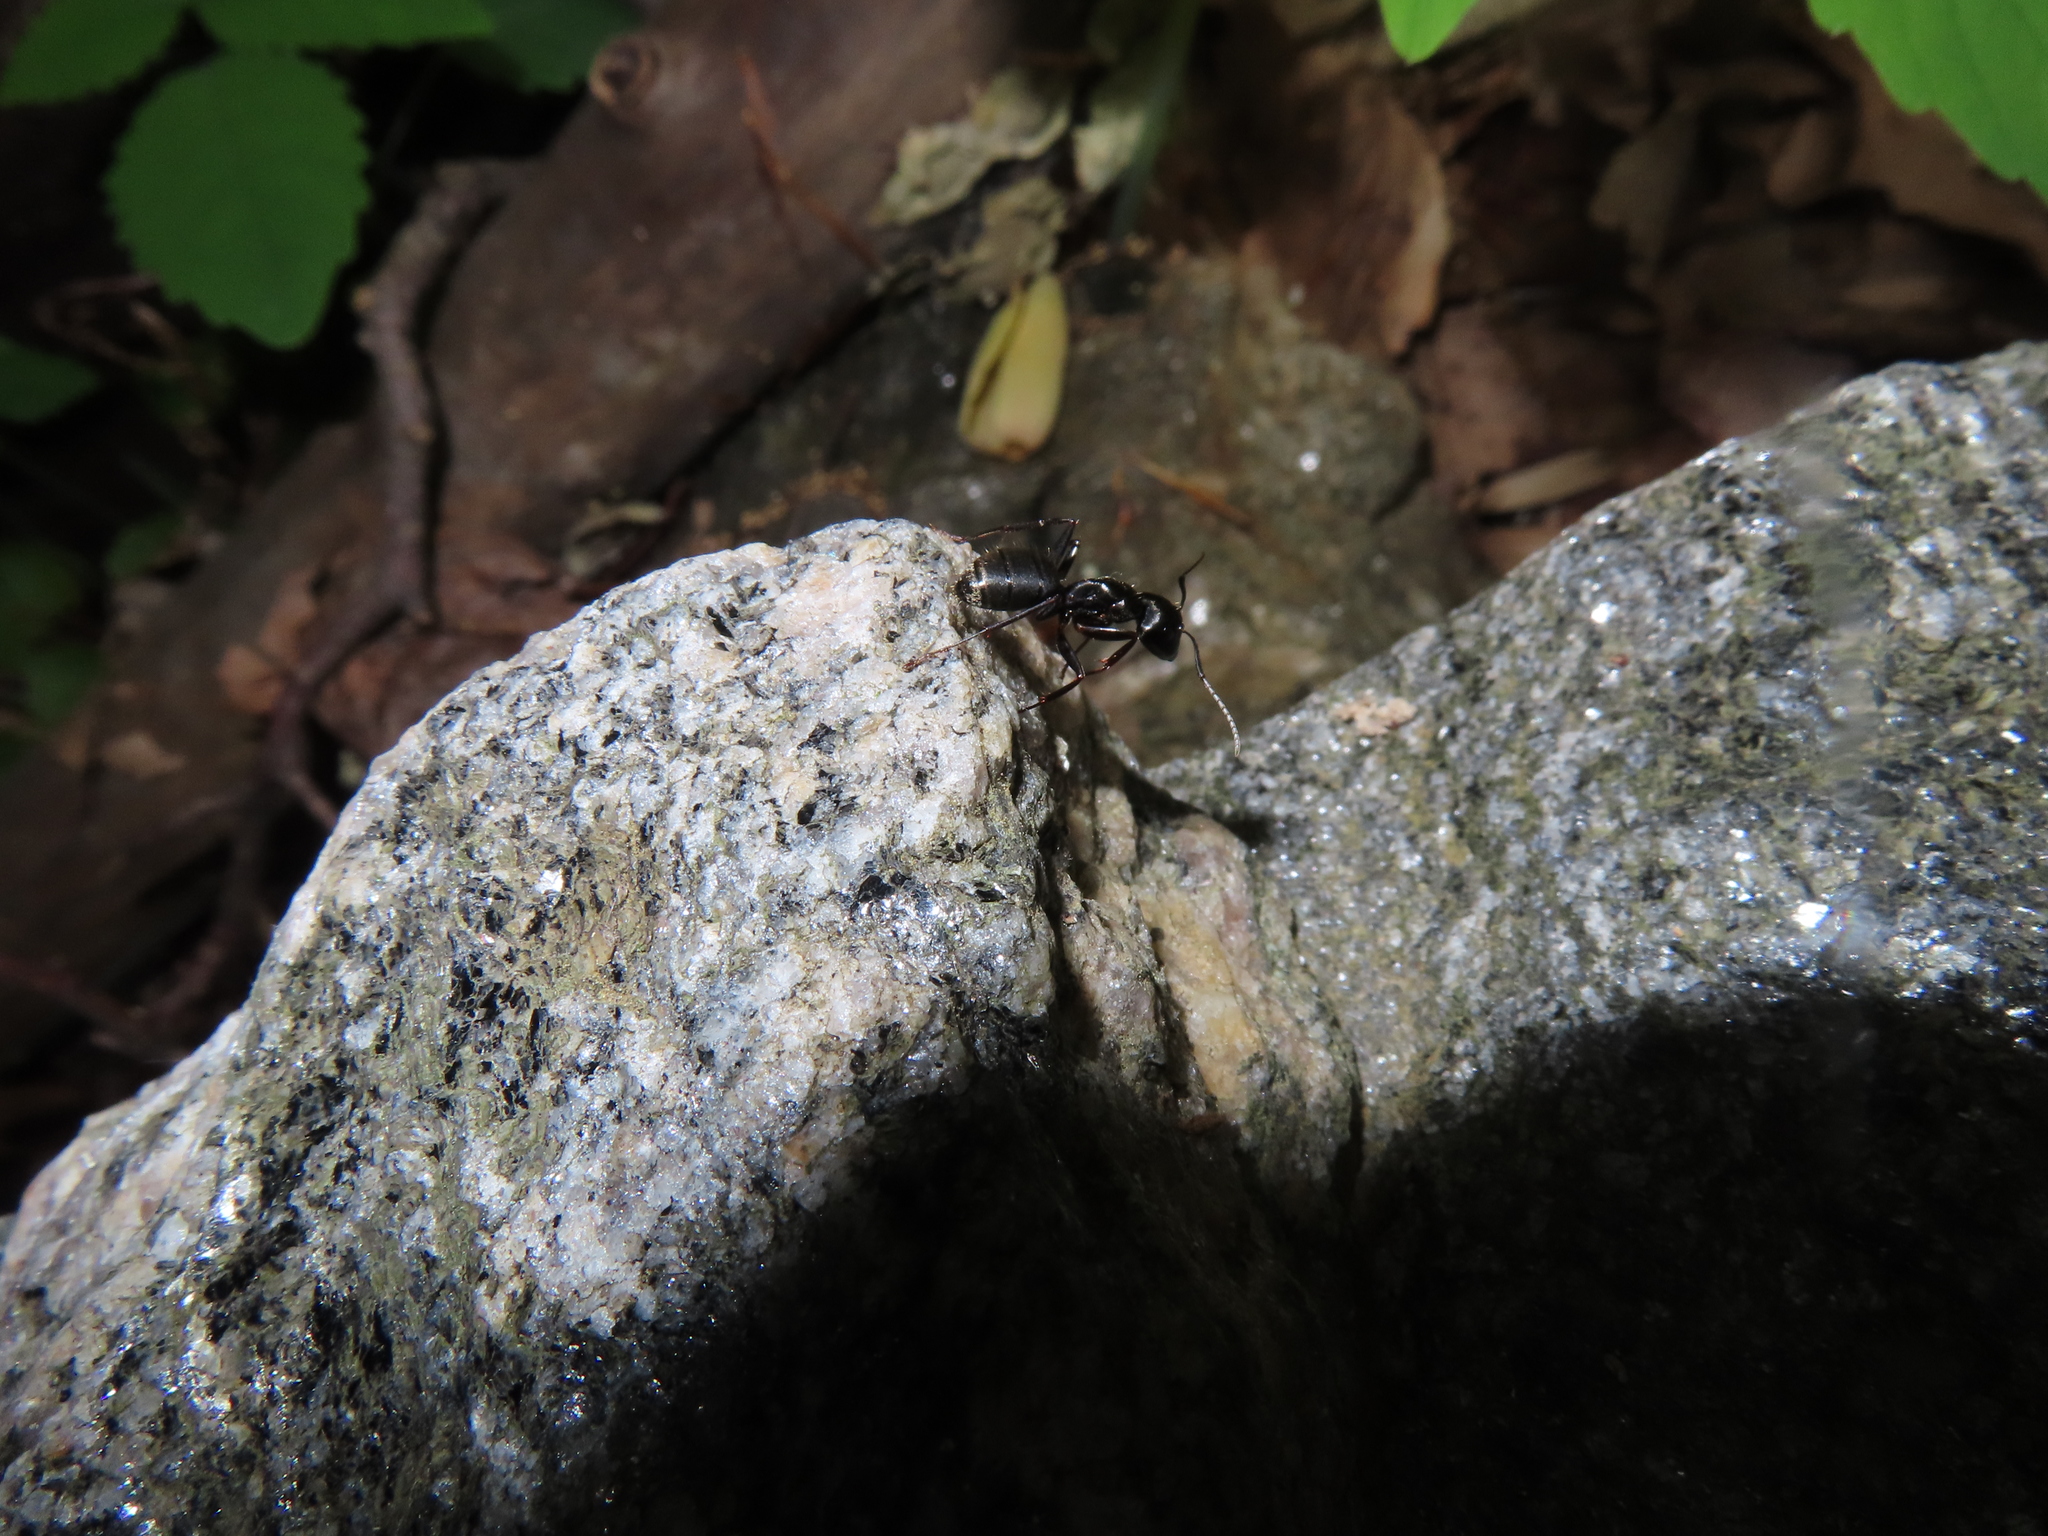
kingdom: Animalia
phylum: Arthropoda
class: Insecta
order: Hymenoptera
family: Formicidae
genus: Camponotus
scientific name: Camponotus pennsylvanicus
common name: Black carpenter ant
